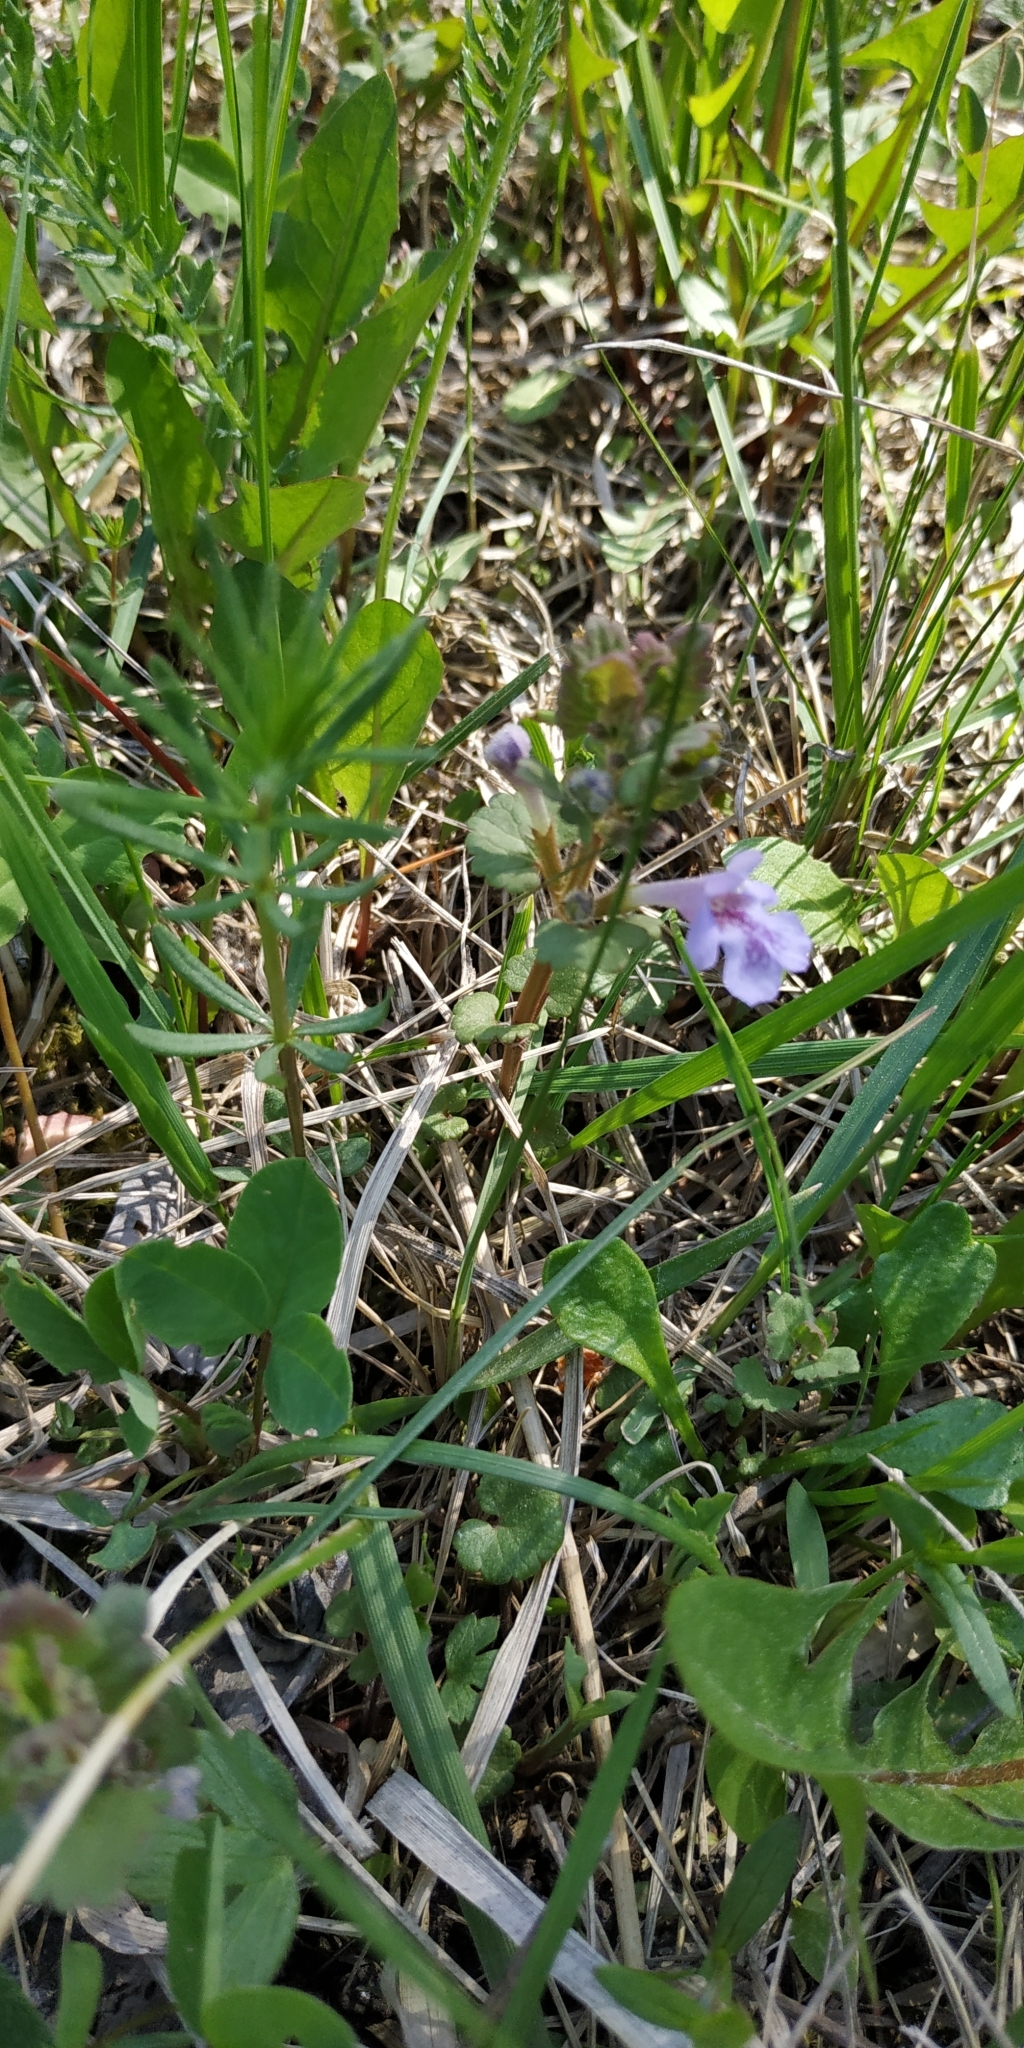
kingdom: Plantae
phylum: Tracheophyta
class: Magnoliopsida
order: Lamiales
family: Lamiaceae
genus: Glechoma
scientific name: Glechoma hederacea
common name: Ground ivy
